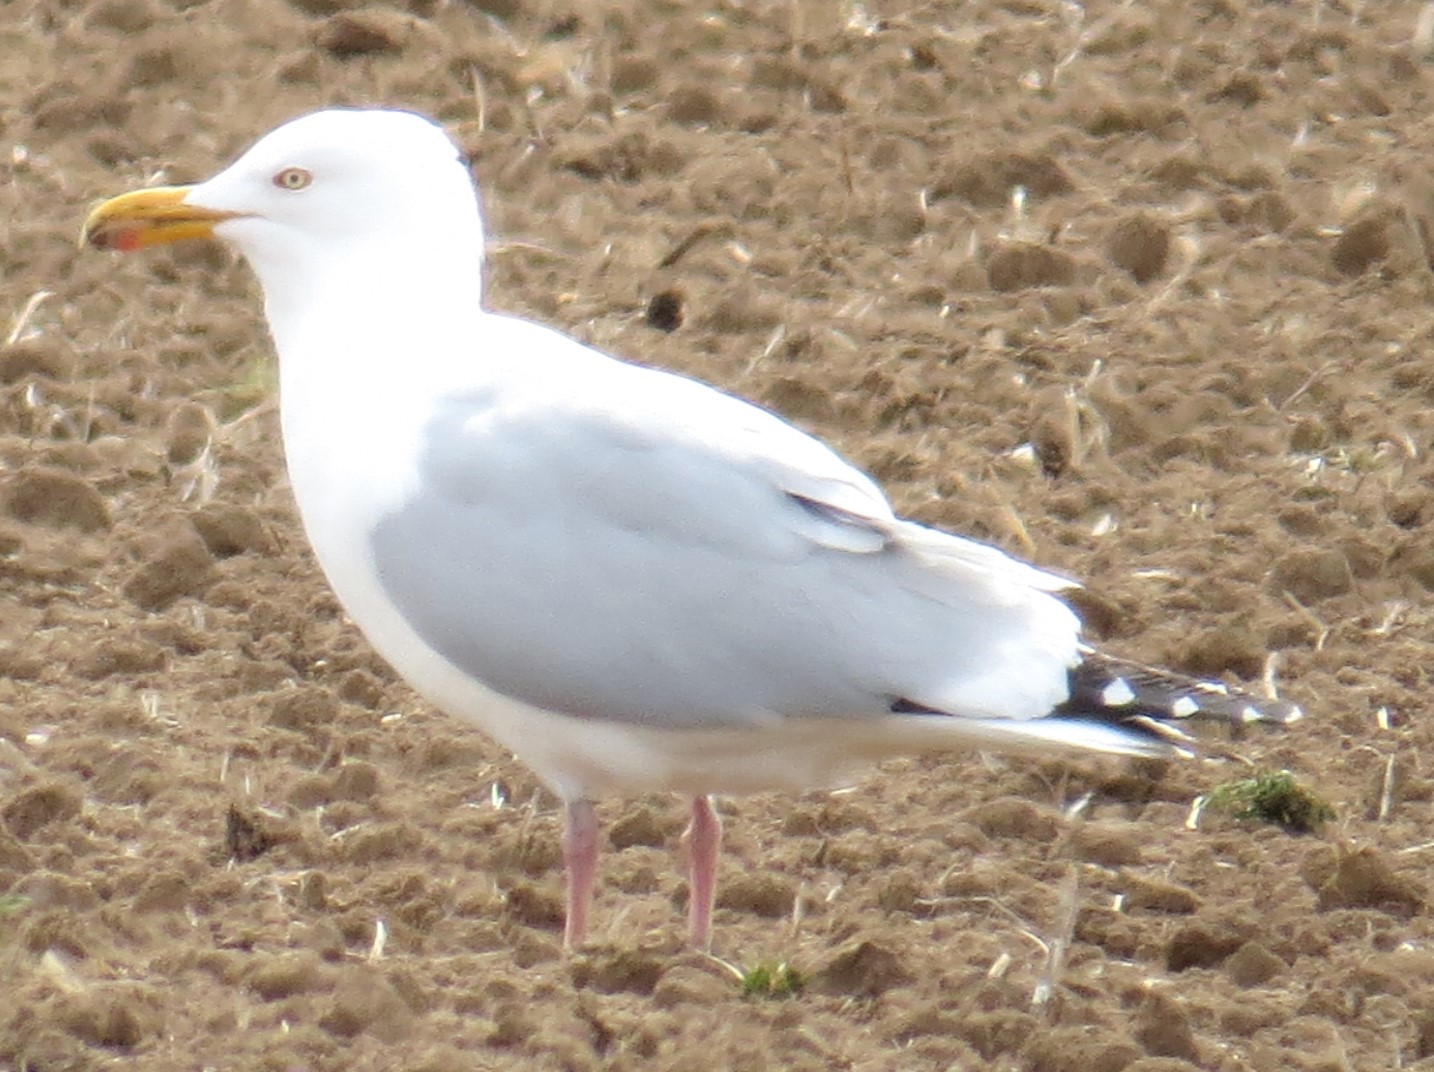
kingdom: Animalia
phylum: Chordata
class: Aves
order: Charadriiformes
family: Laridae
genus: Larus
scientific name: Larus argentatus
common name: Herring gull
